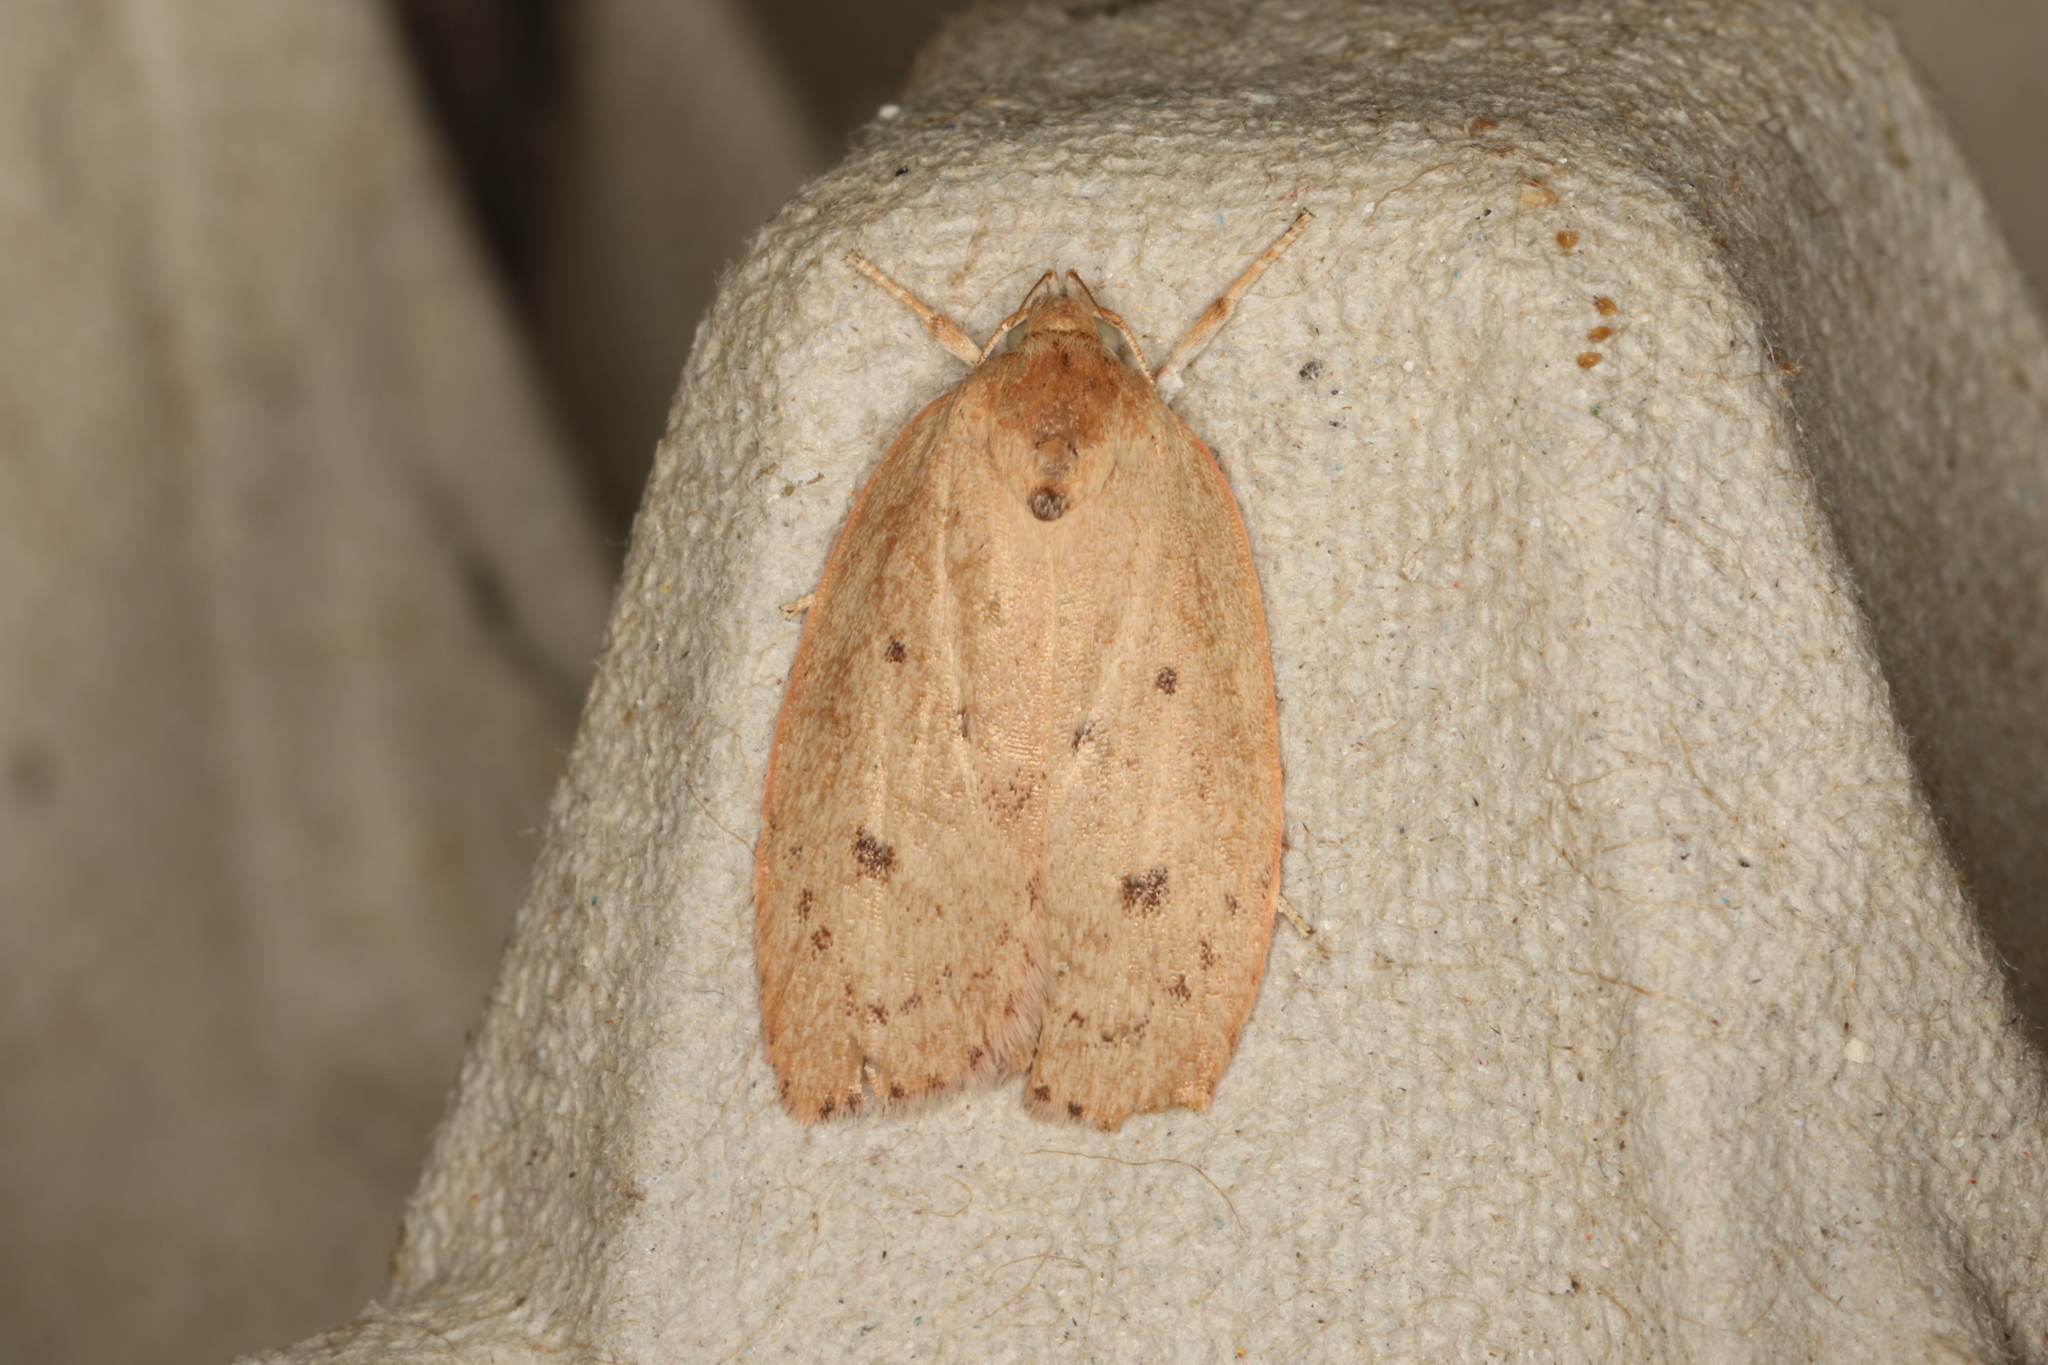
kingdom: Animalia
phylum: Arthropoda
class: Insecta
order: Lepidoptera
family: Oecophoridae
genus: Prionocris
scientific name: Prionocris protoxantha
